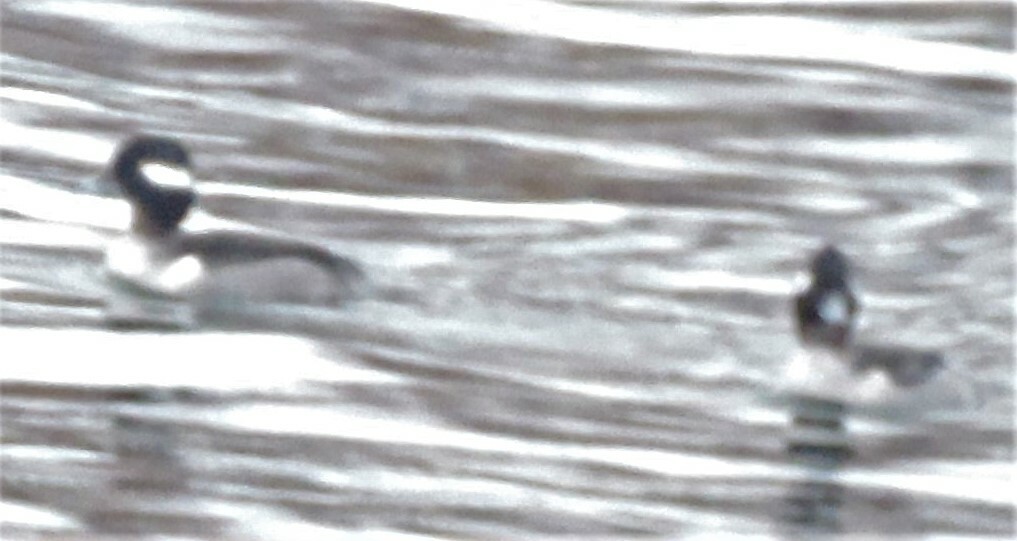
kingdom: Animalia
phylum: Chordata
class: Aves
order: Anseriformes
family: Anatidae
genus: Bucephala
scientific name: Bucephala albeola
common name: Bufflehead
